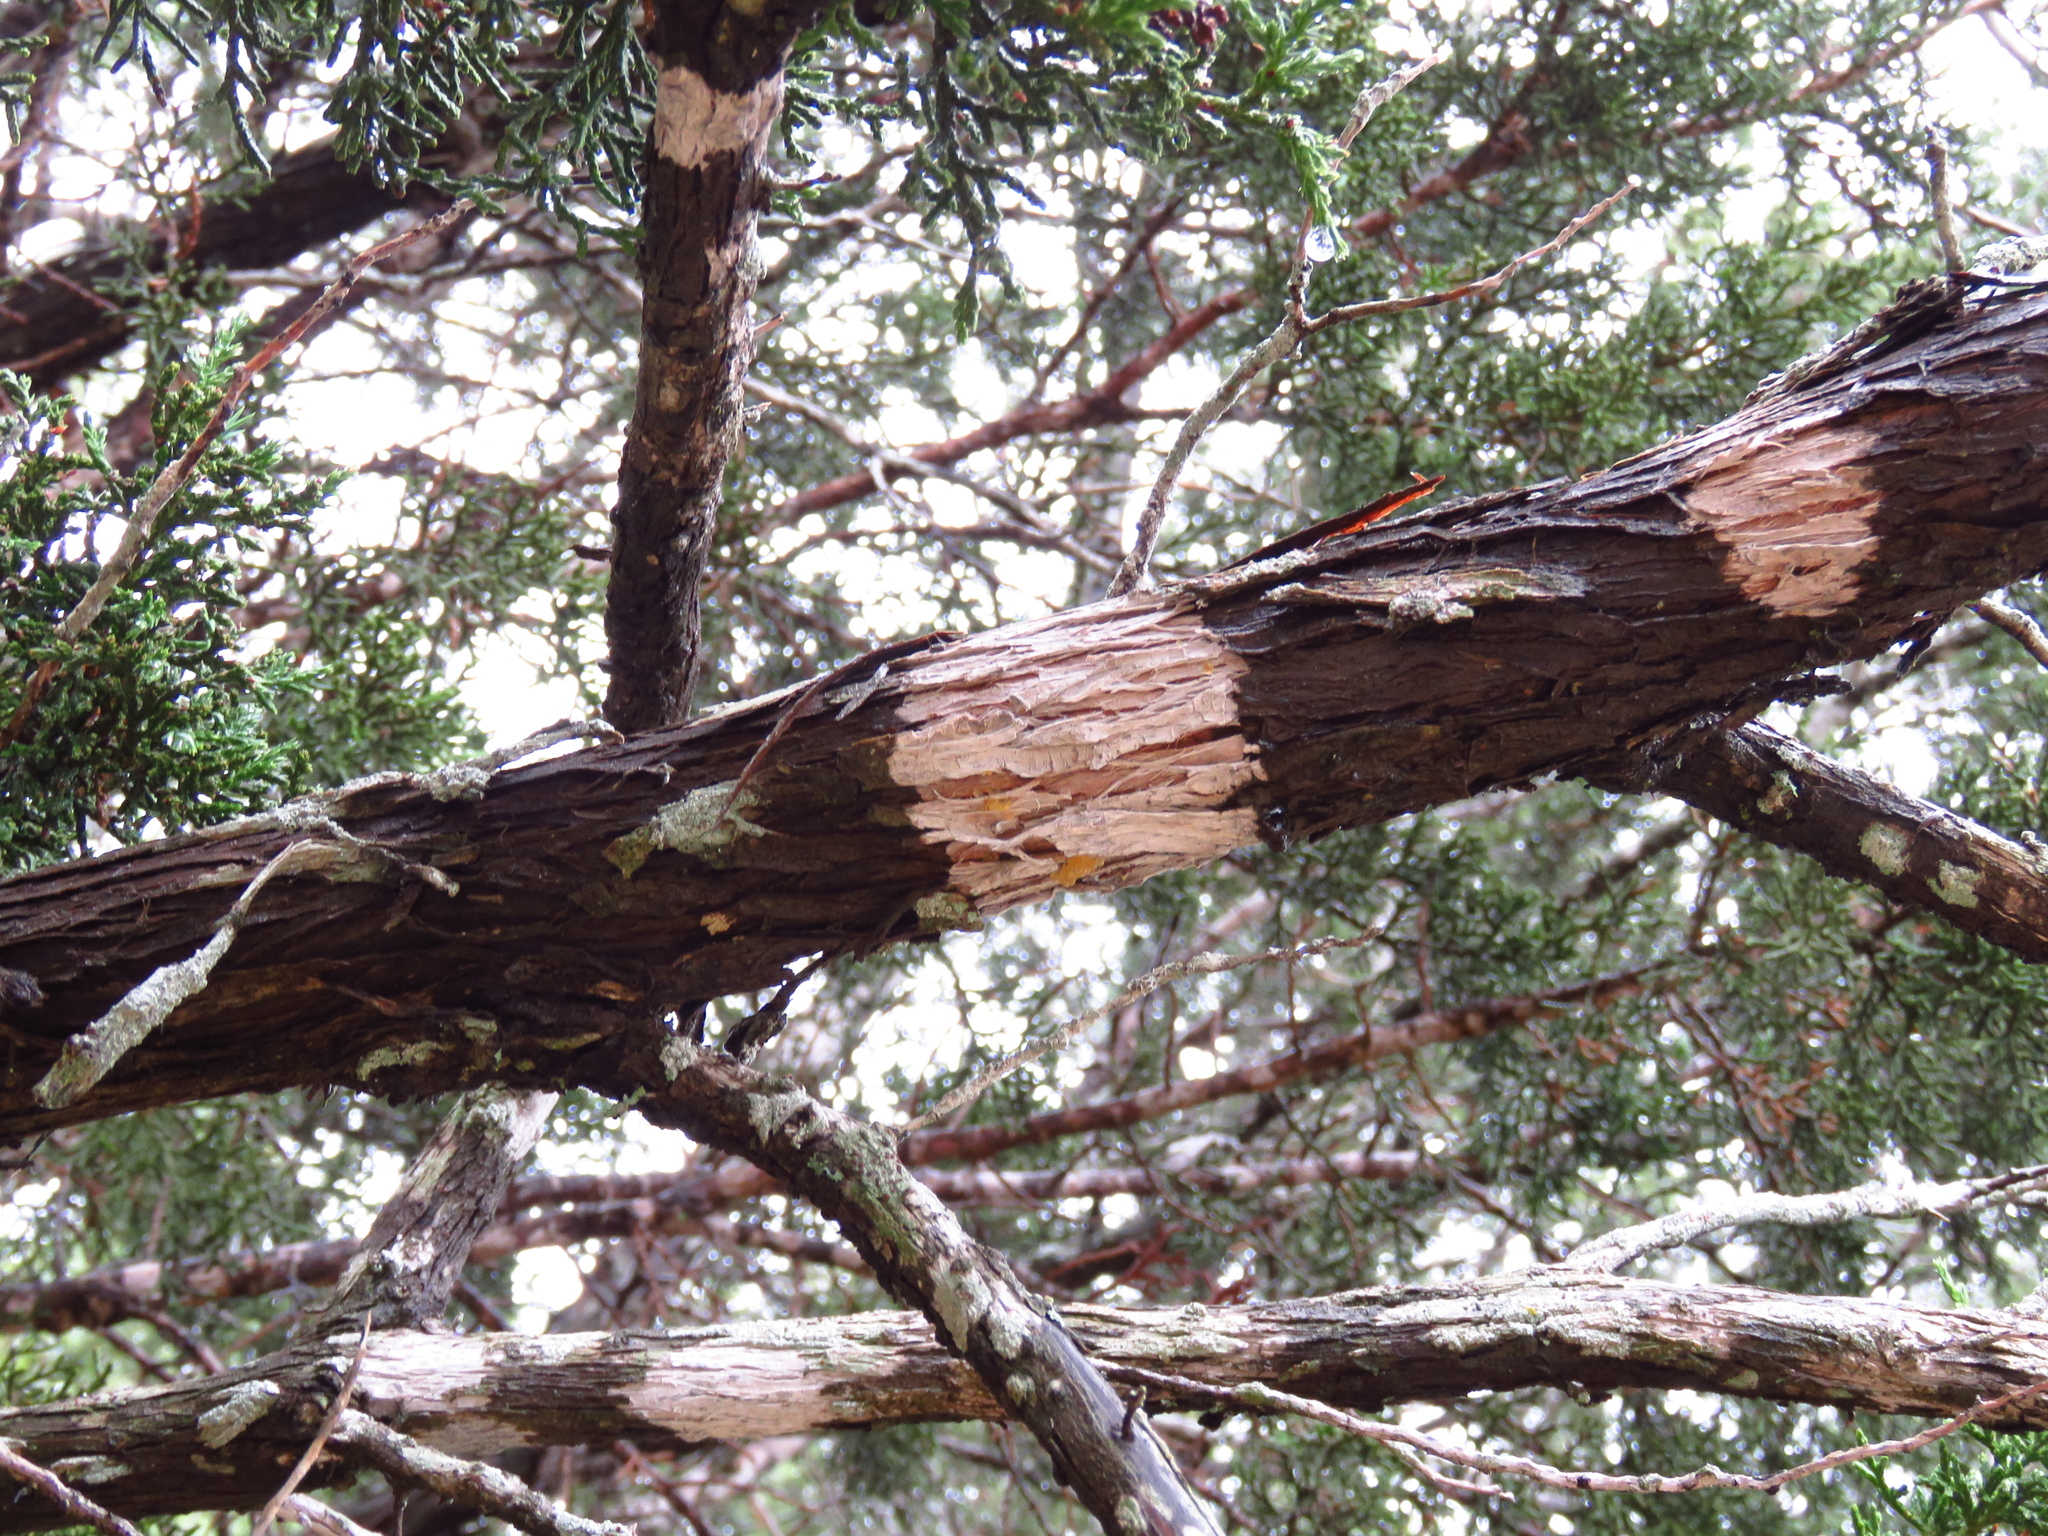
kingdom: Fungi
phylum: Ascomycota
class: Lecanoromycetes
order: Ostropales
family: Stictidaceae
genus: Robergea
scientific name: Robergea
